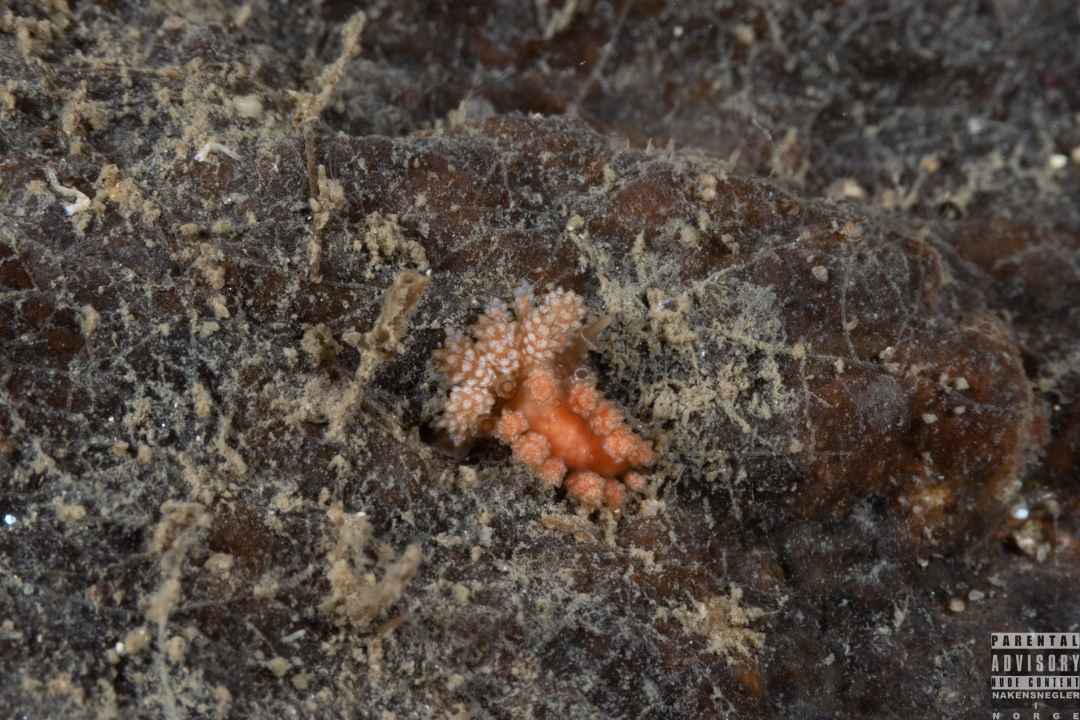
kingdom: Animalia
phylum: Mollusca
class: Gastropoda
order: Nudibranchia
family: Dotidae
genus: Doto
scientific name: Doto fragilis
